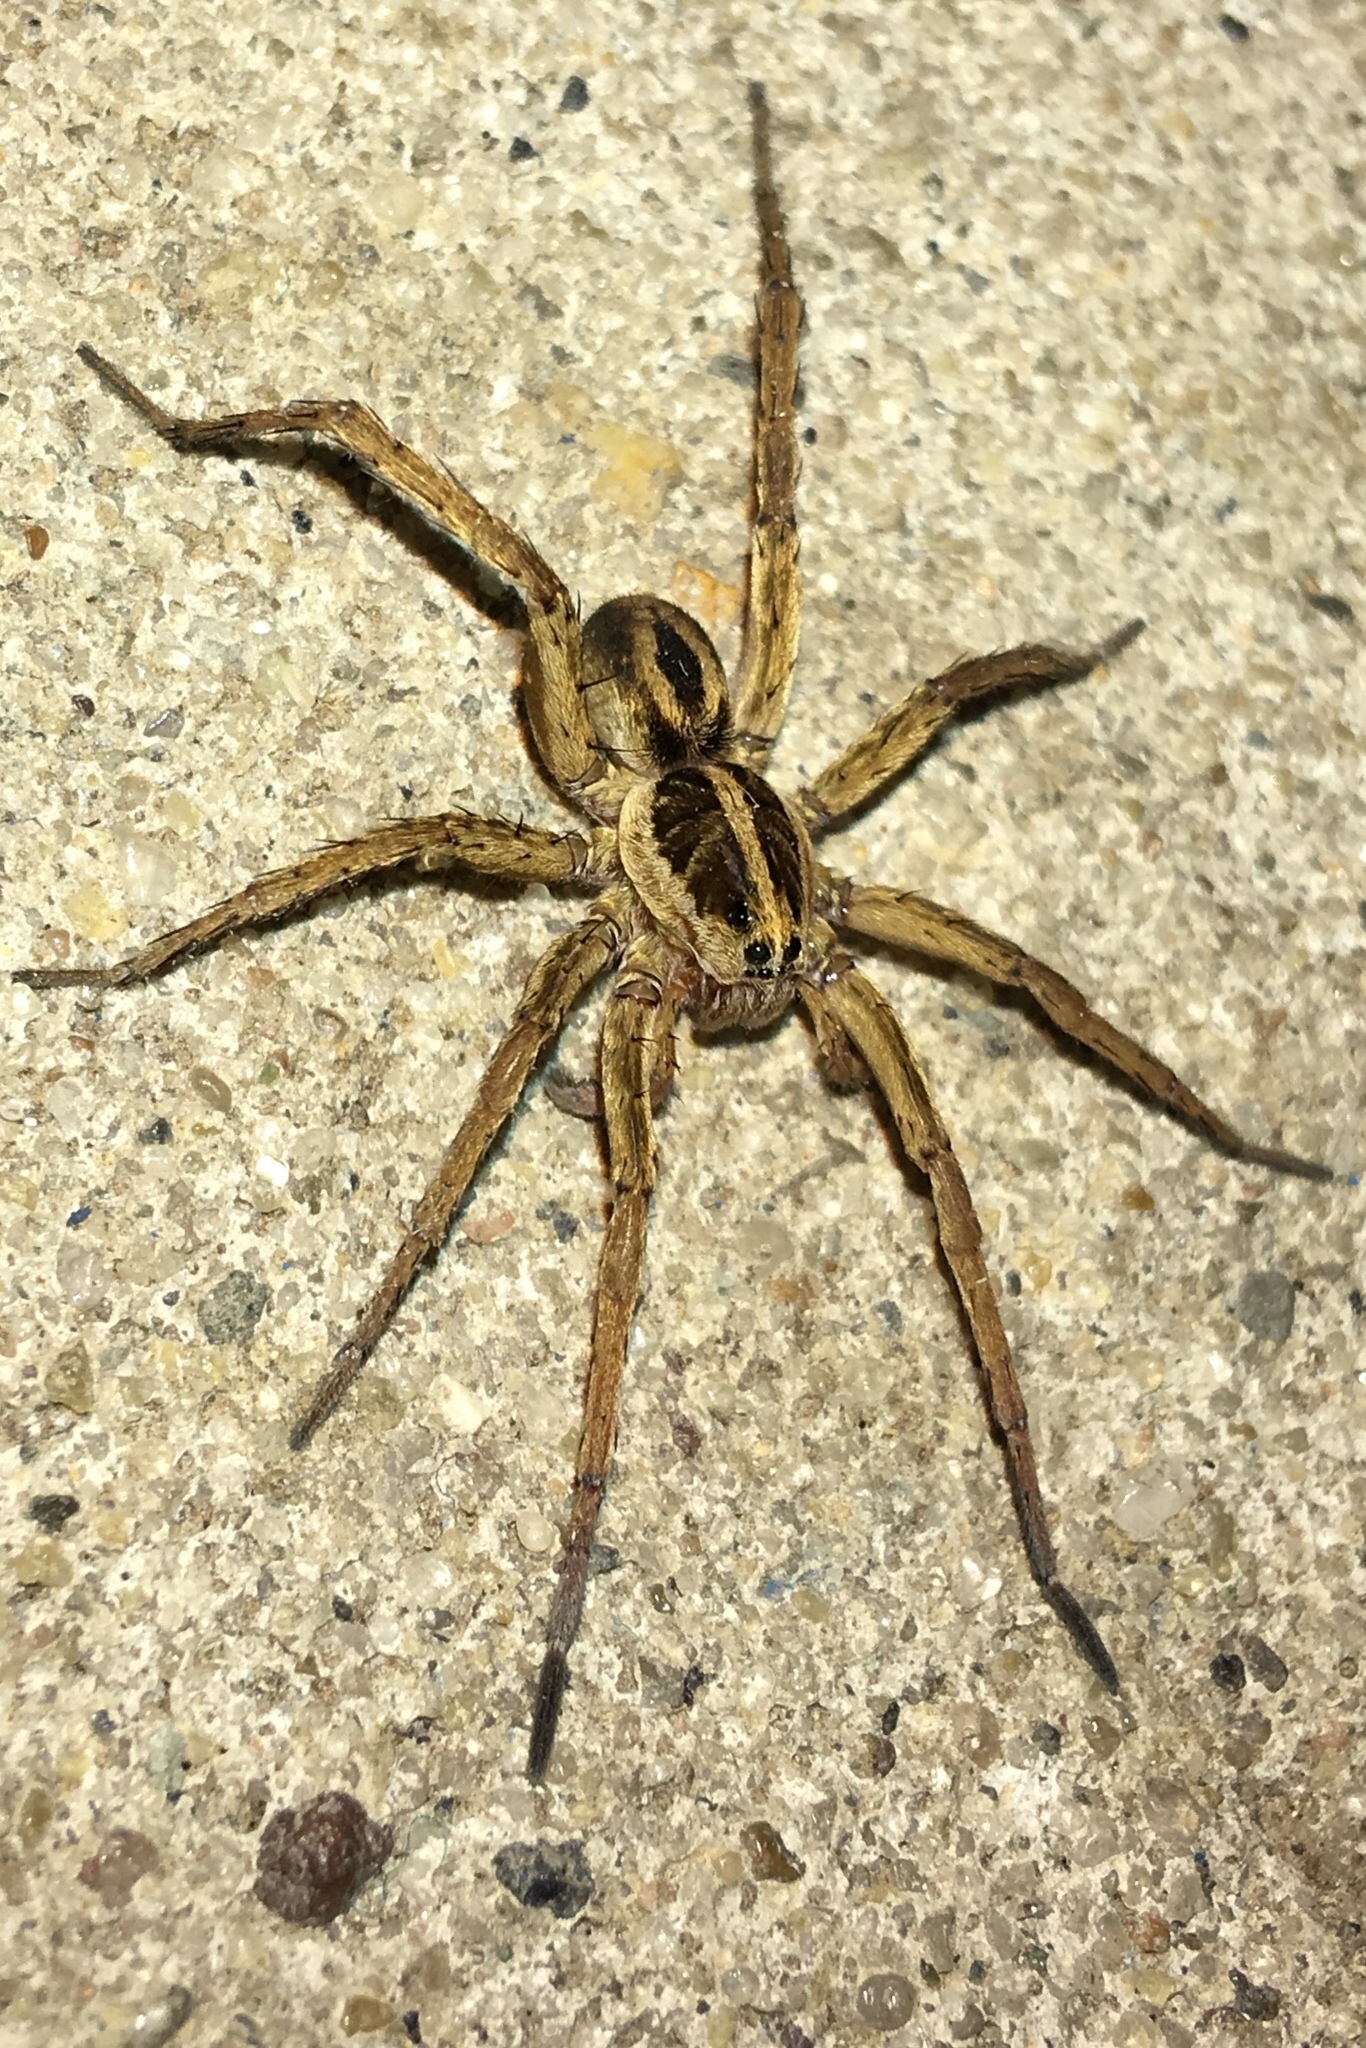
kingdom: Animalia
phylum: Arthropoda
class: Arachnida
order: Araneae
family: Lycosidae
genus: Tigrosa
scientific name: Tigrosa annexa
